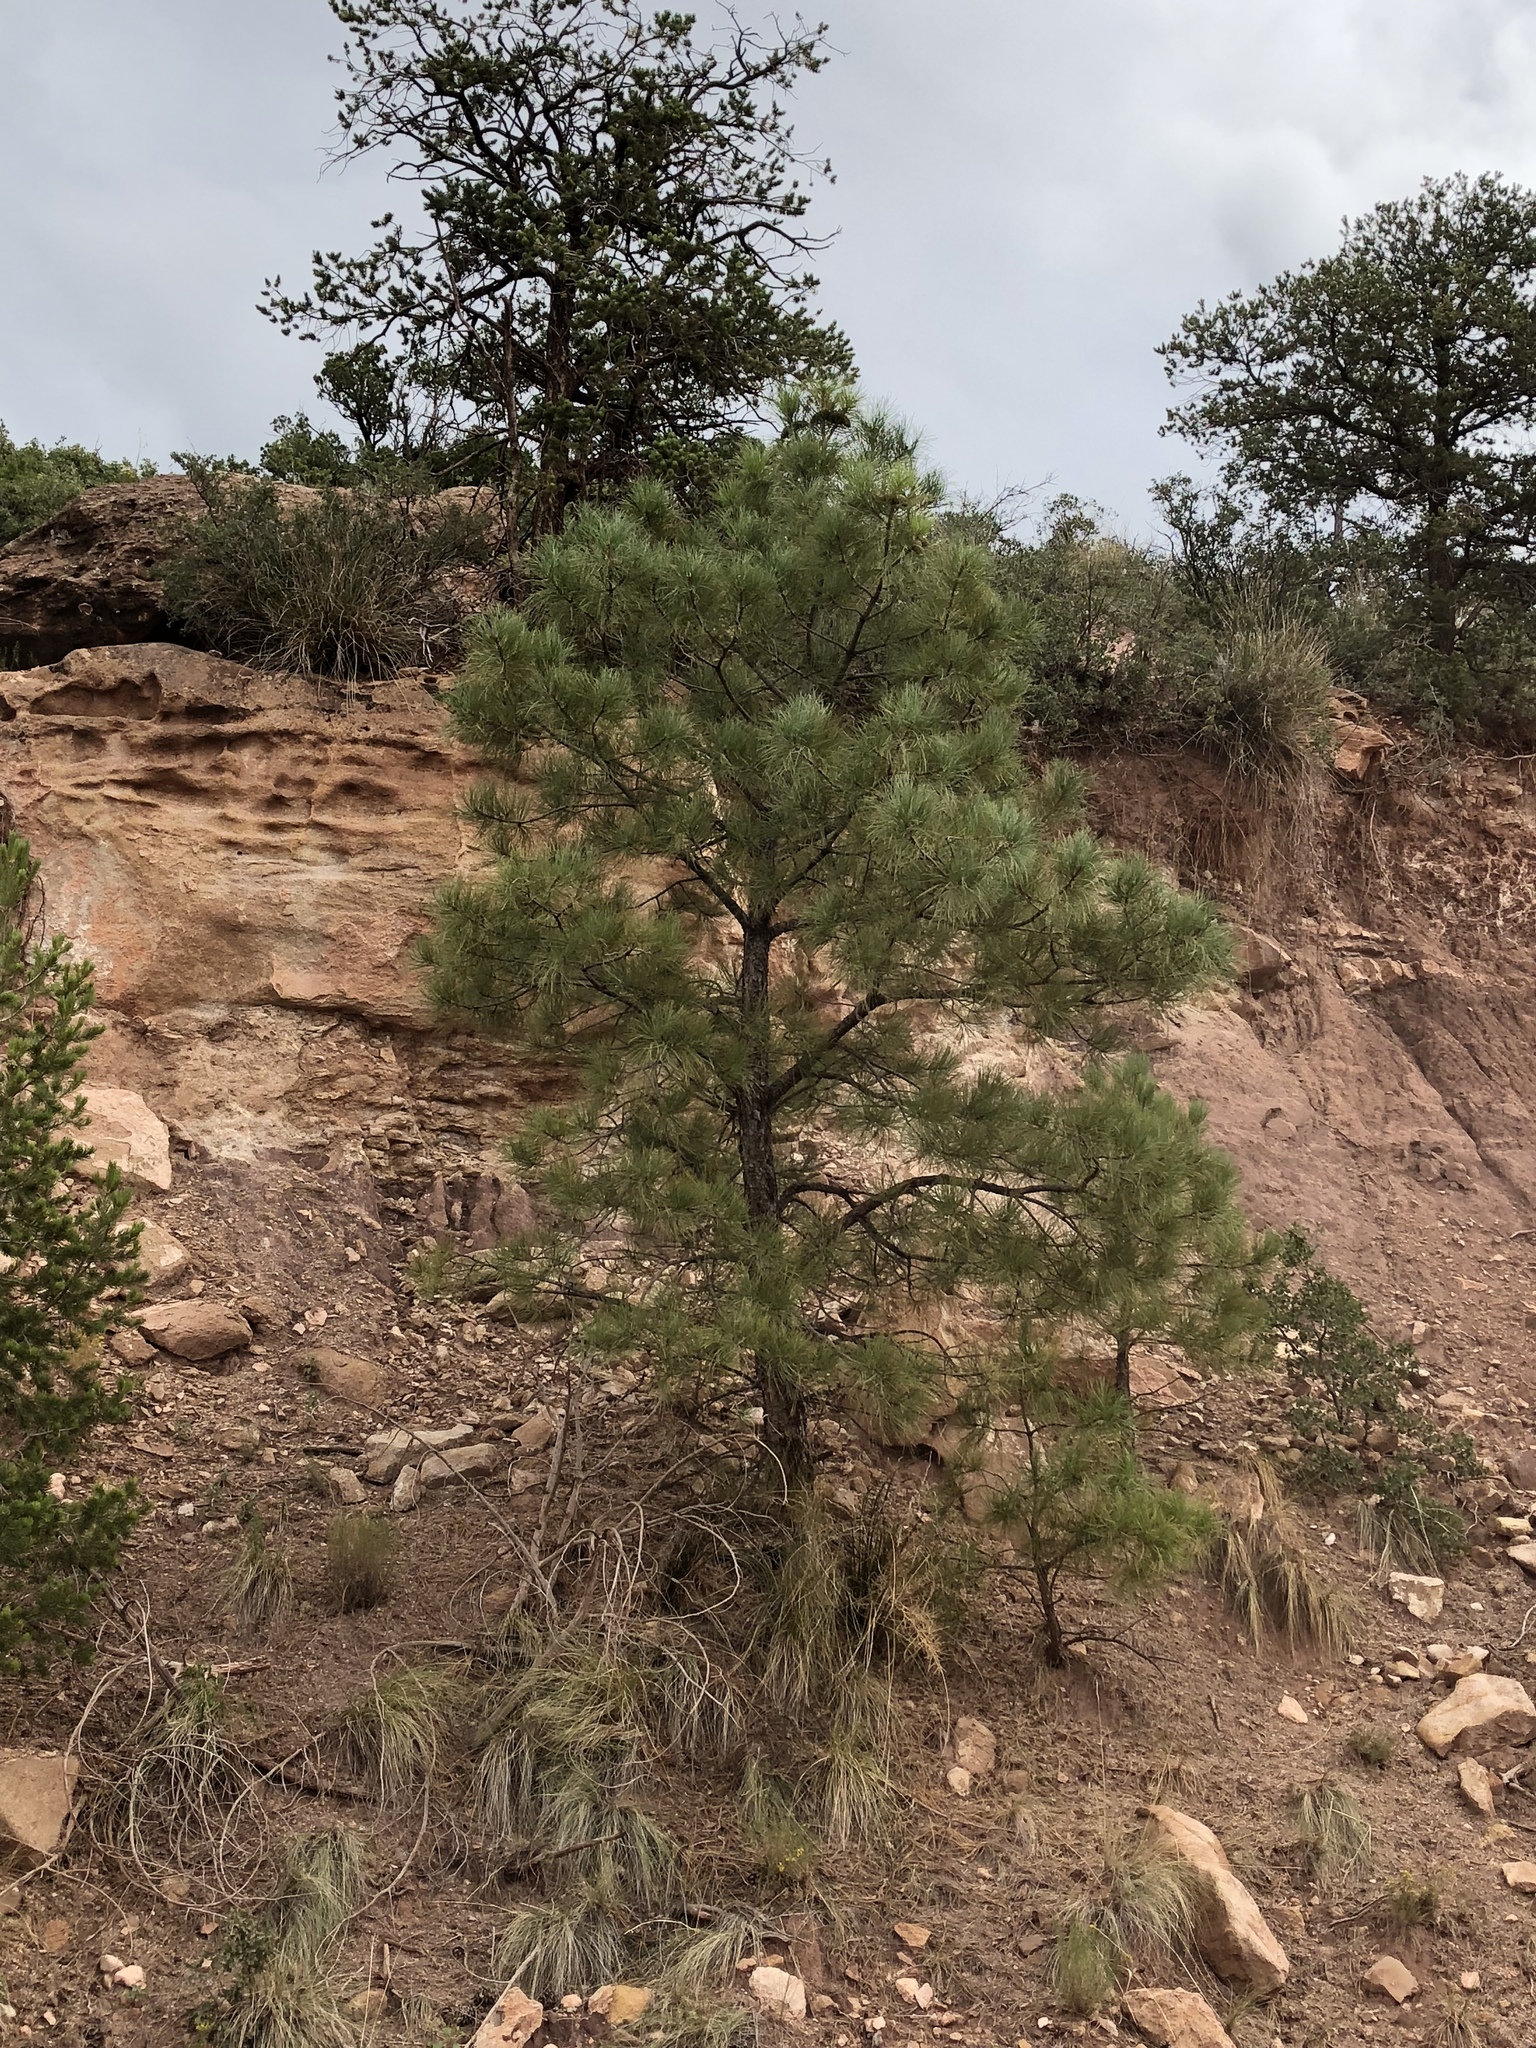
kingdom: Plantae
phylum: Tracheophyta
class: Pinopsida
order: Pinales
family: Pinaceae
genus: Pinus
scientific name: Pinus ponderosa
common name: Western yellow-pine
